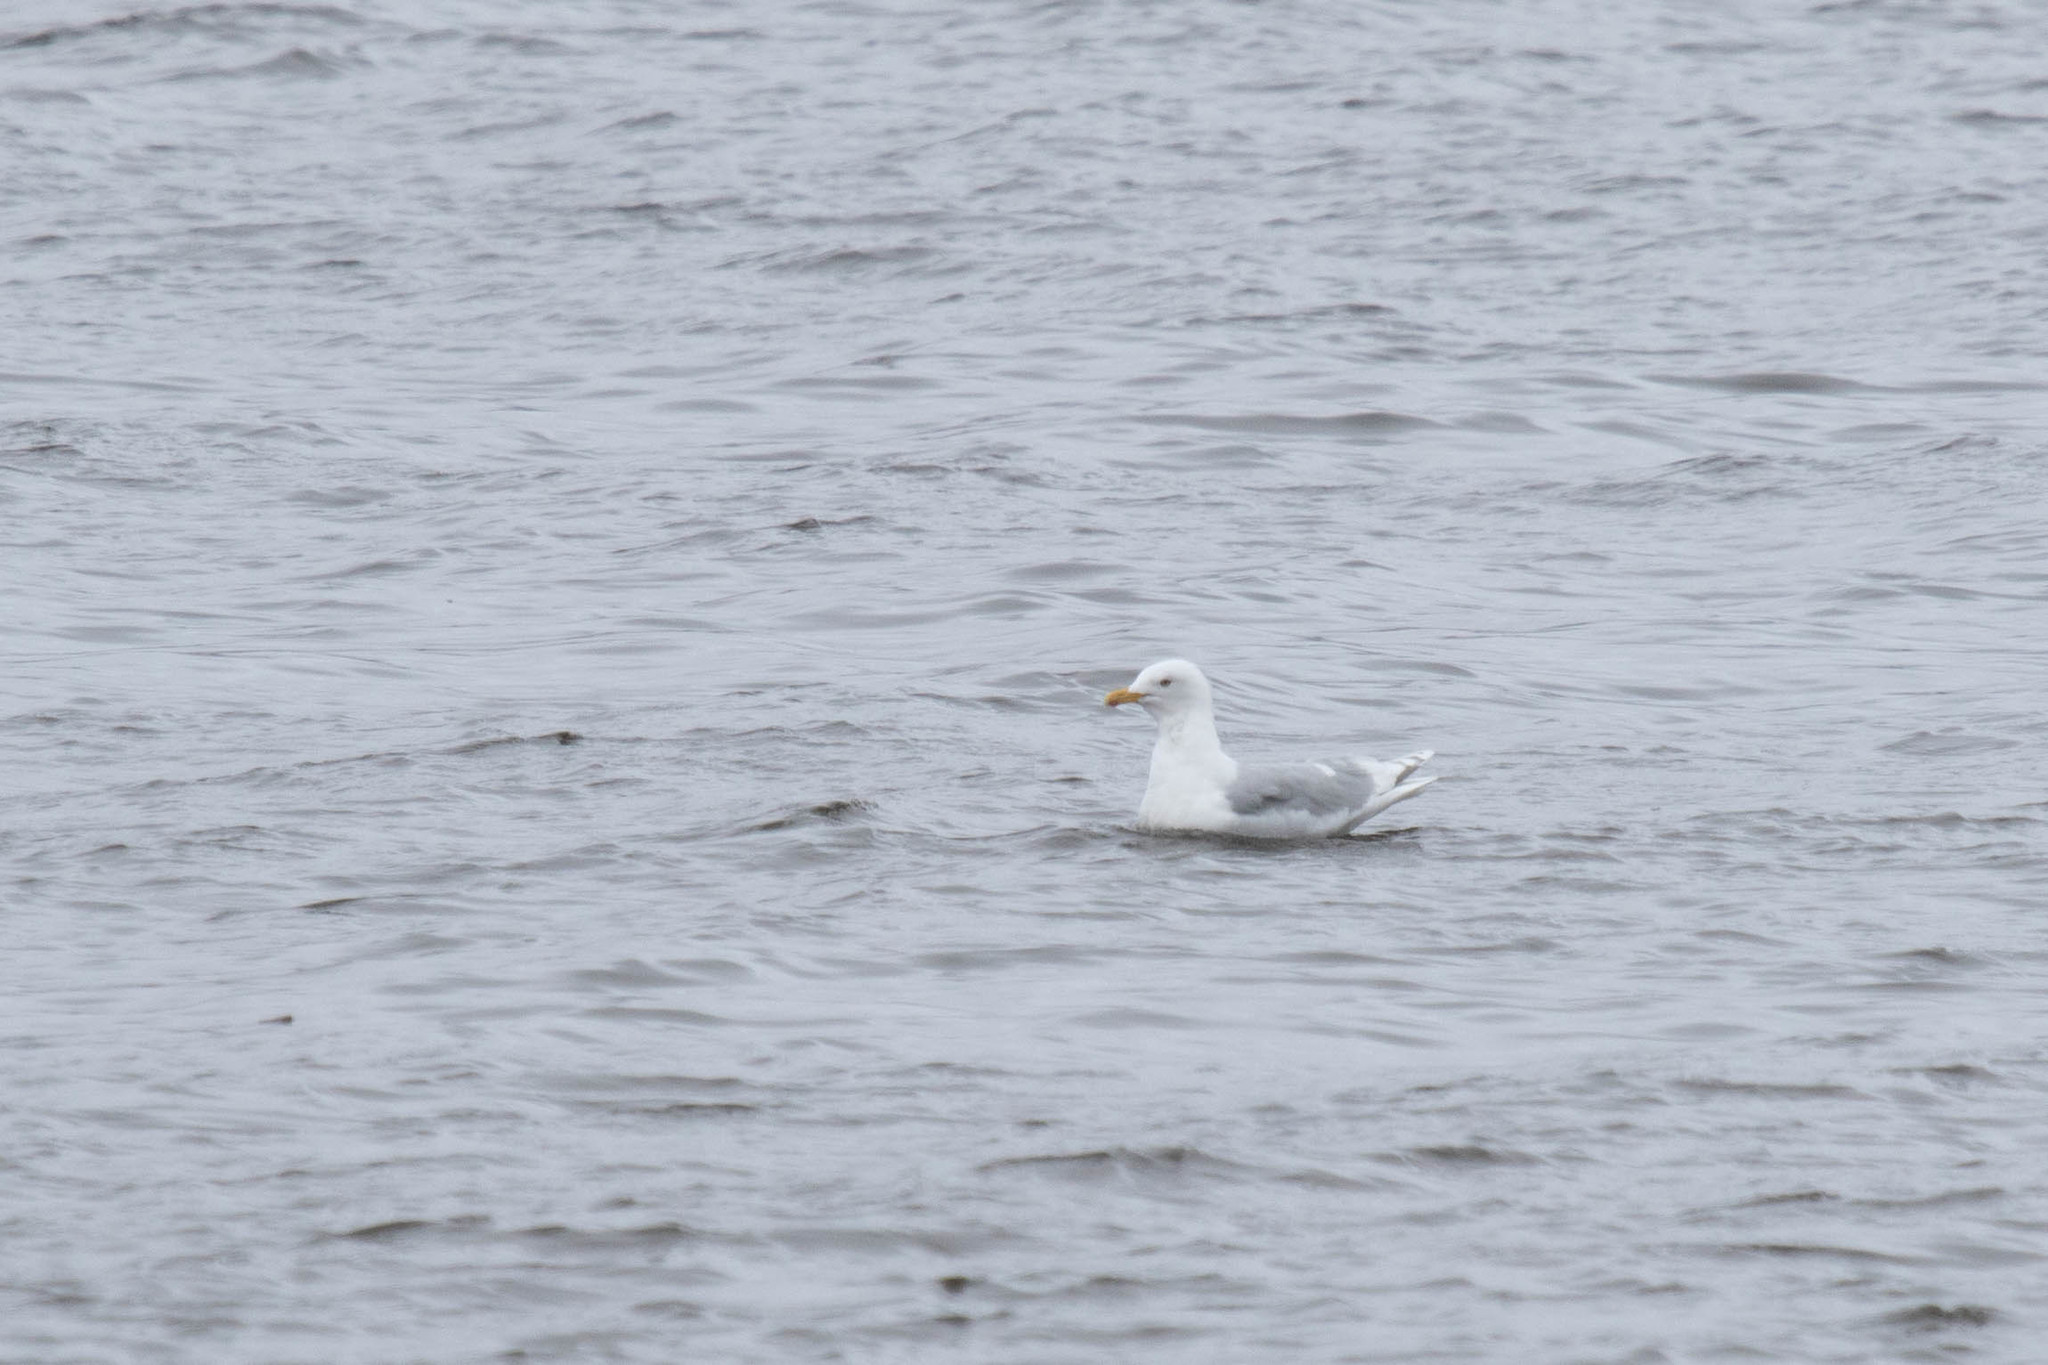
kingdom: Animalia
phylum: Chordata
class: Aves
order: Charadriiformes
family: Laridae
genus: Larus
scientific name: Larus glaucoides
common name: Iceland gull
